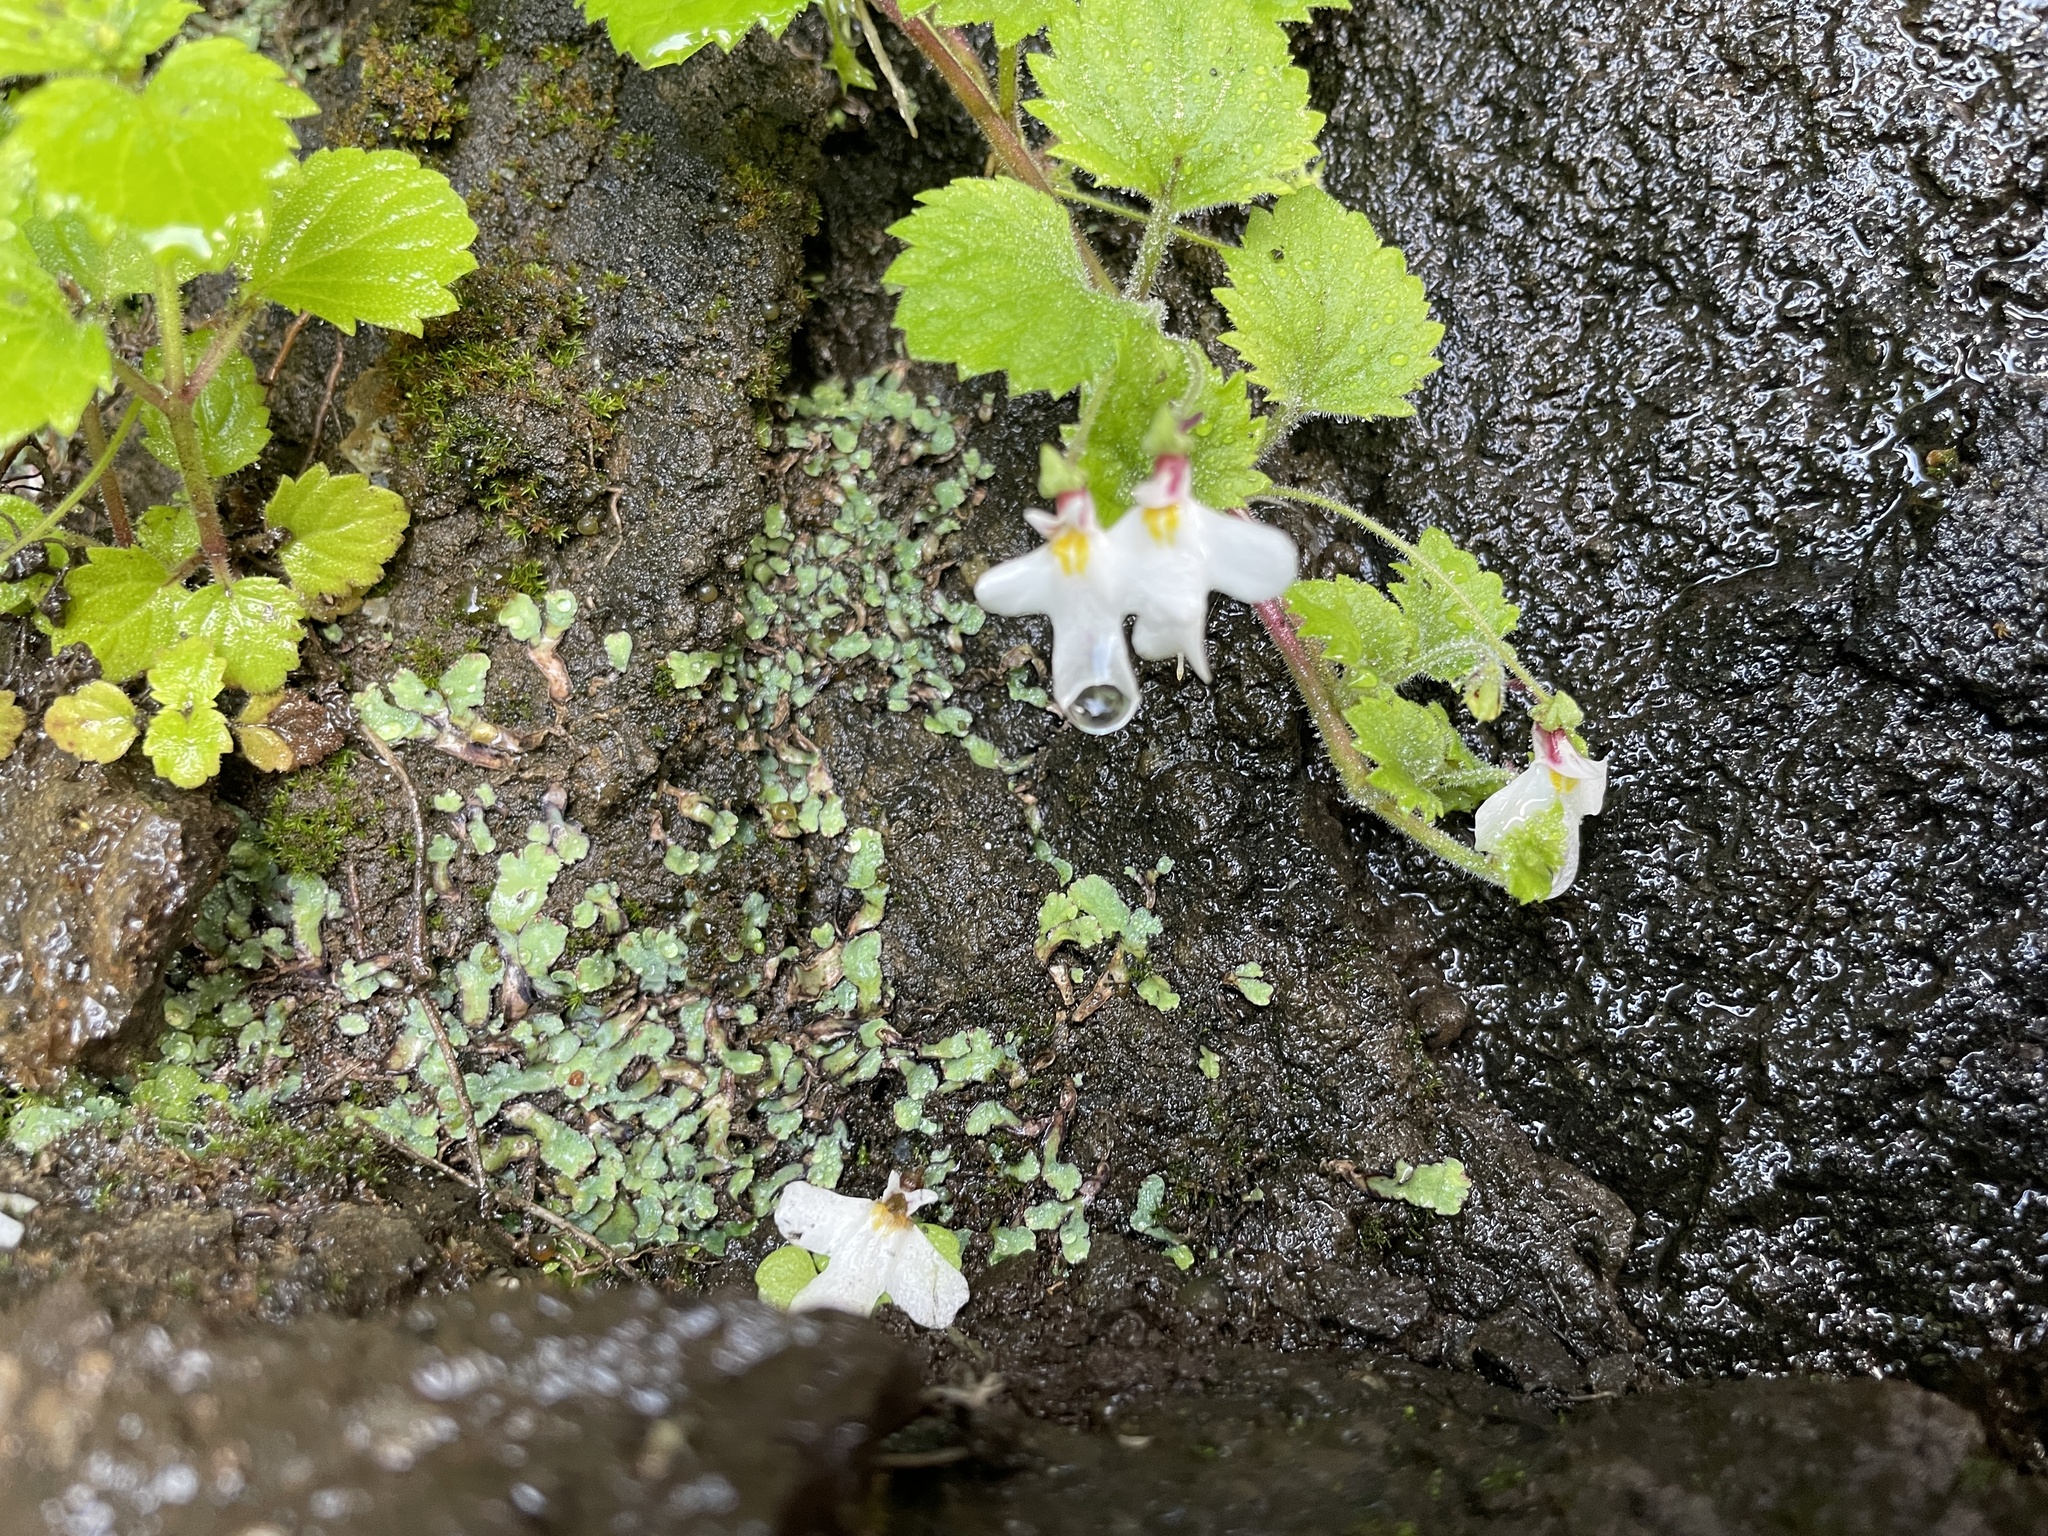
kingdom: Plantae
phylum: Tracheophyta
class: Magnoliopsida
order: Lamiales
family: Scrophulariaceae
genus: Diclis
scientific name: Diclis reptans
